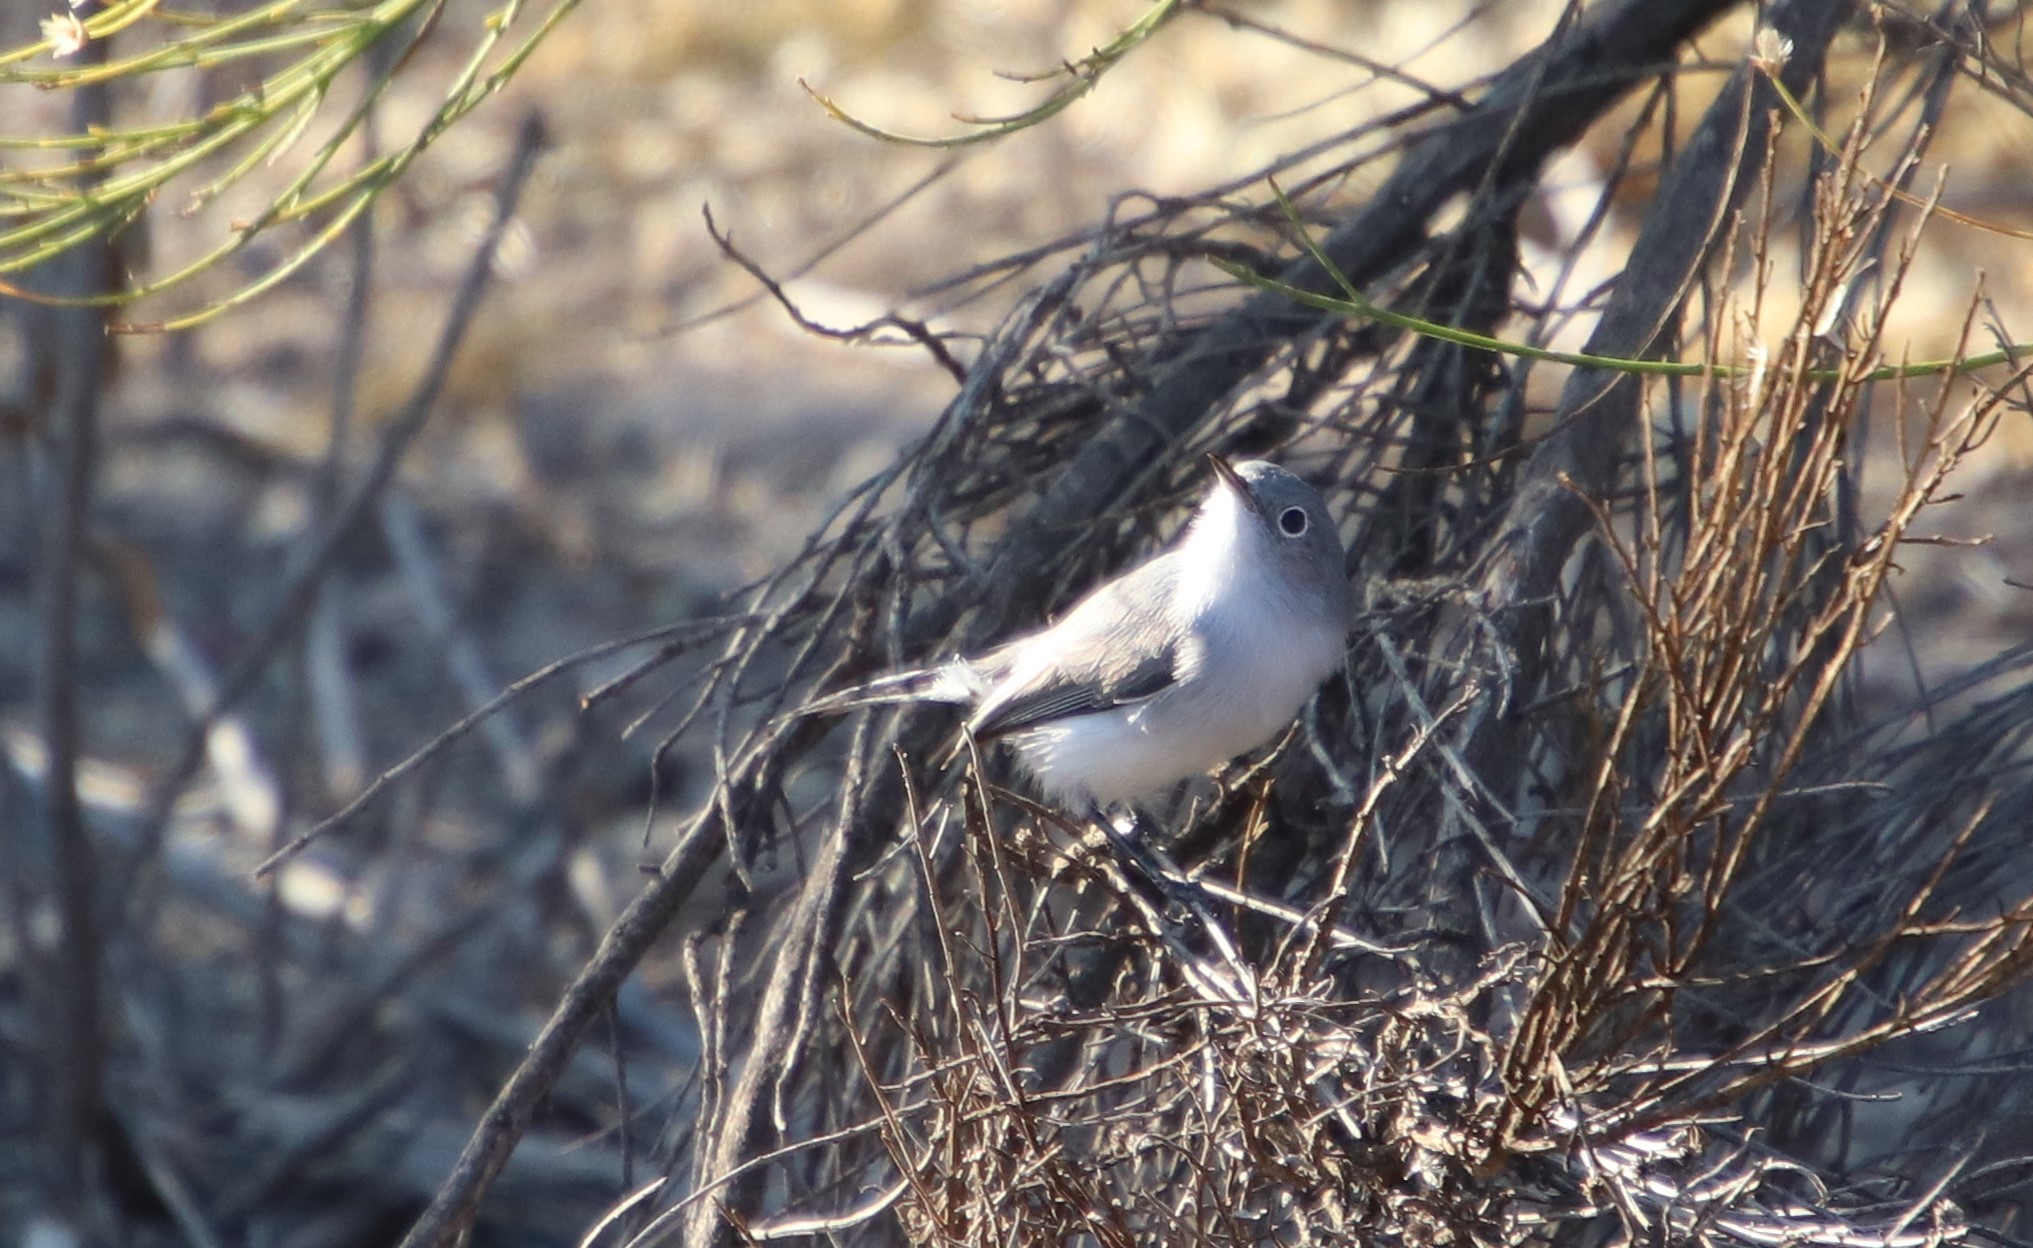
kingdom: Animalia
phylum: Chordata
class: Aves
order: Passeriformes
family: Polioptilidae
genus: Polioptila
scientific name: Polioptila caerulea
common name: Blue-gray gnatcatcher
